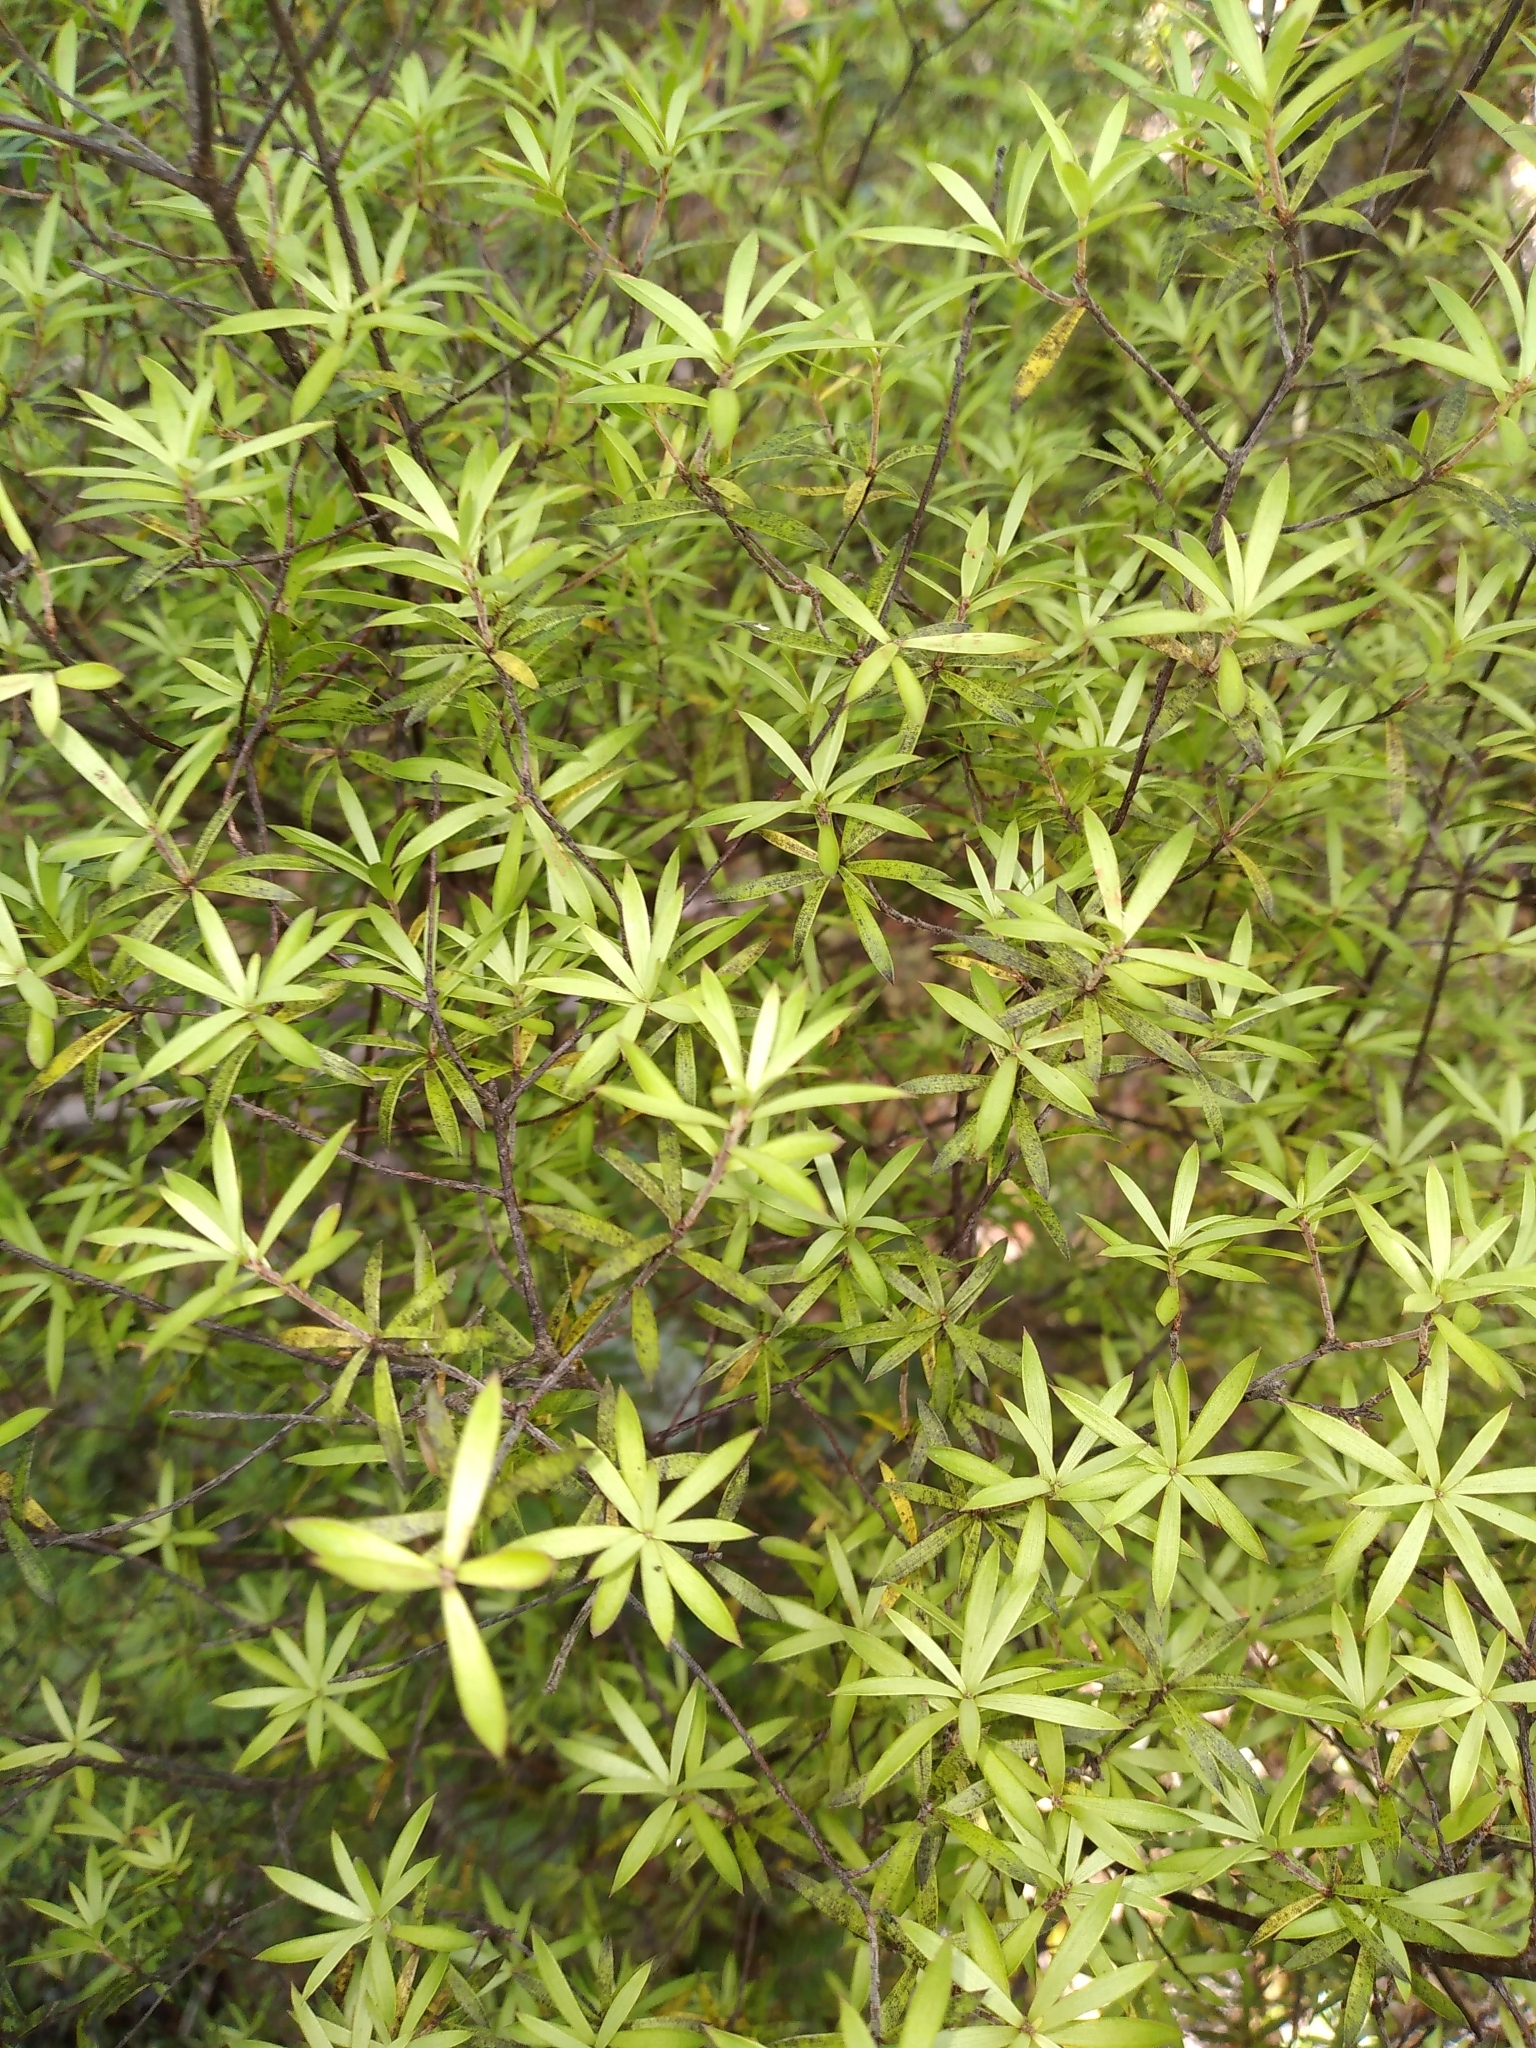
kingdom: Plantae
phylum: Tracheophyta
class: Magnoliopsida
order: Ericales
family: Ericaceae
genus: Leucopogon
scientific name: Leucopogon fasciculatus
